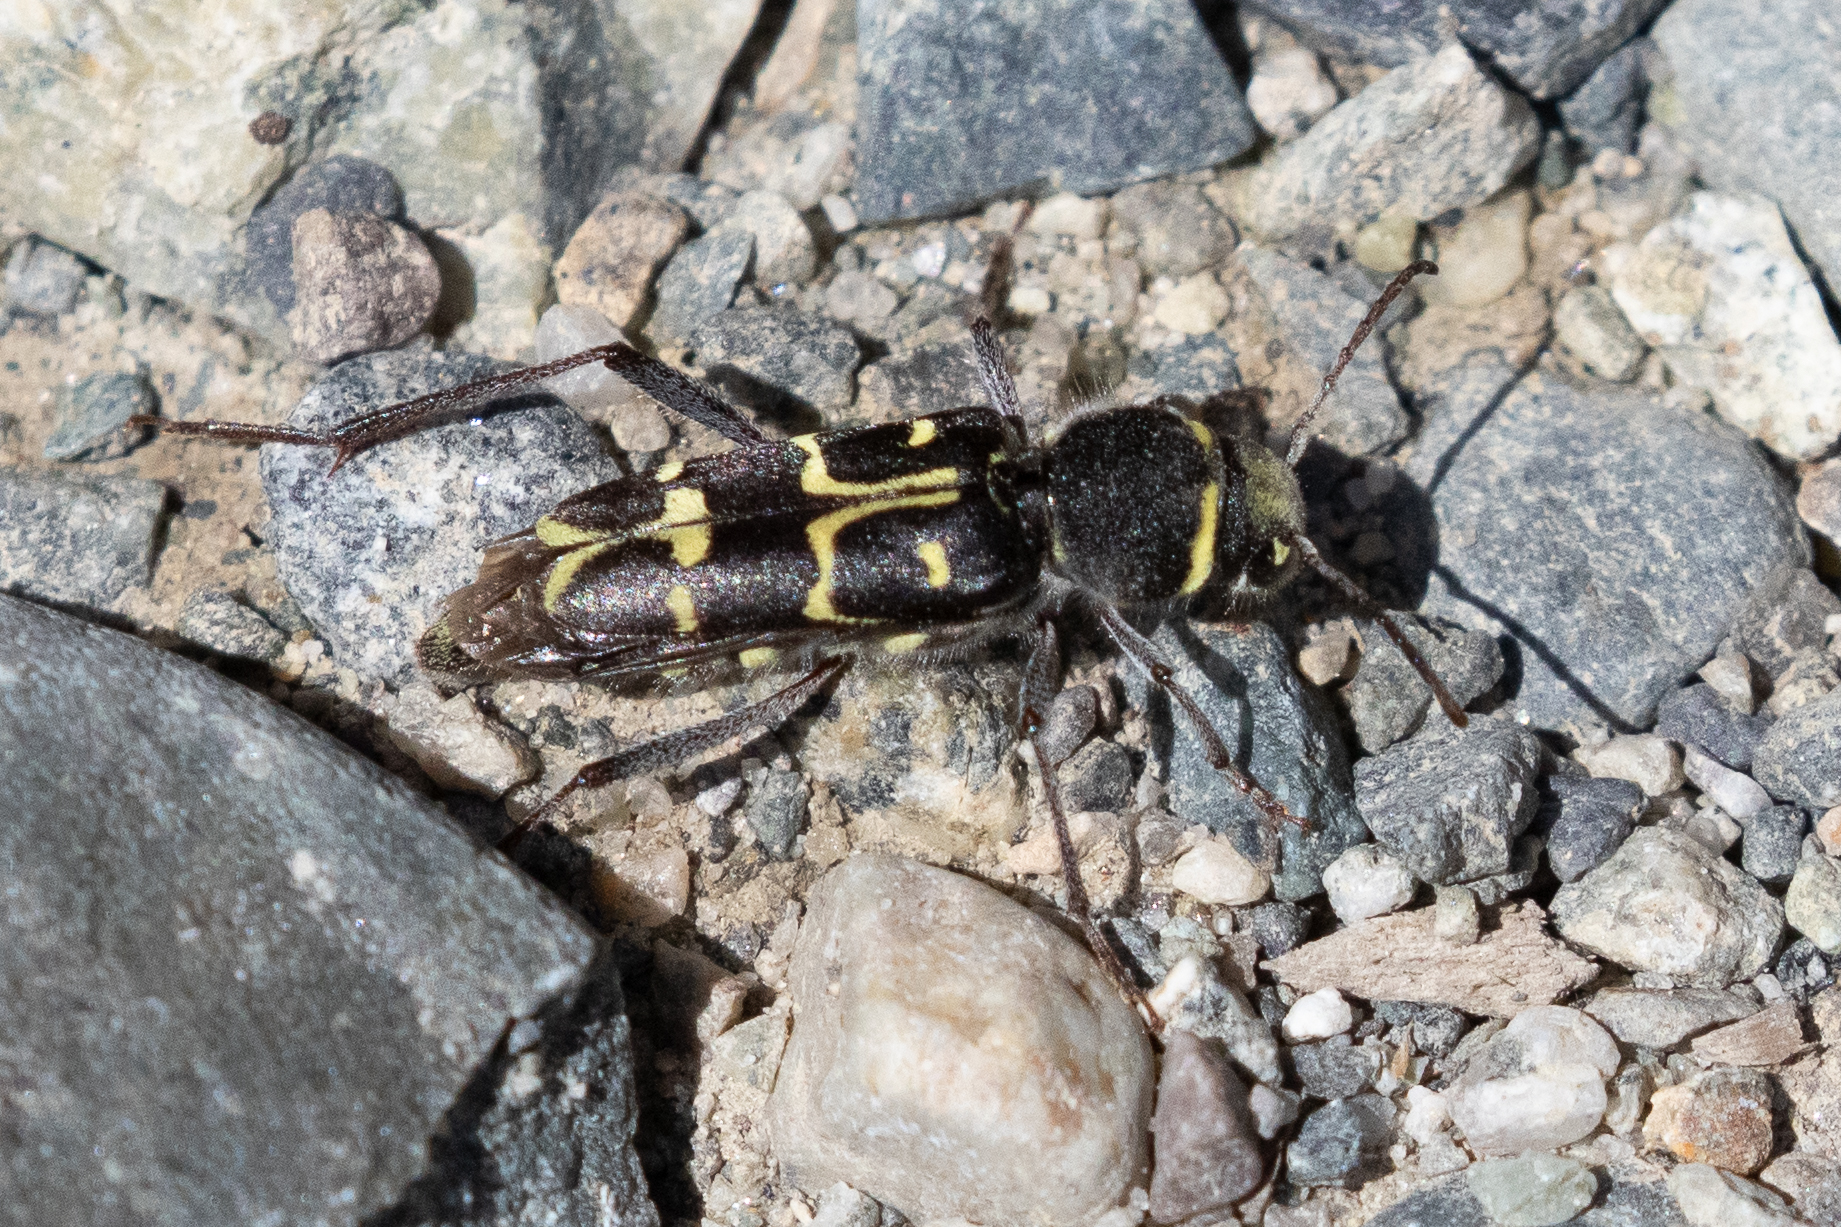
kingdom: Animalia
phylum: Arthropoda
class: Insecta
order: Coleoptera
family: Cerambycidae
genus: Xylotrechus
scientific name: Xylotrechus undulatus
